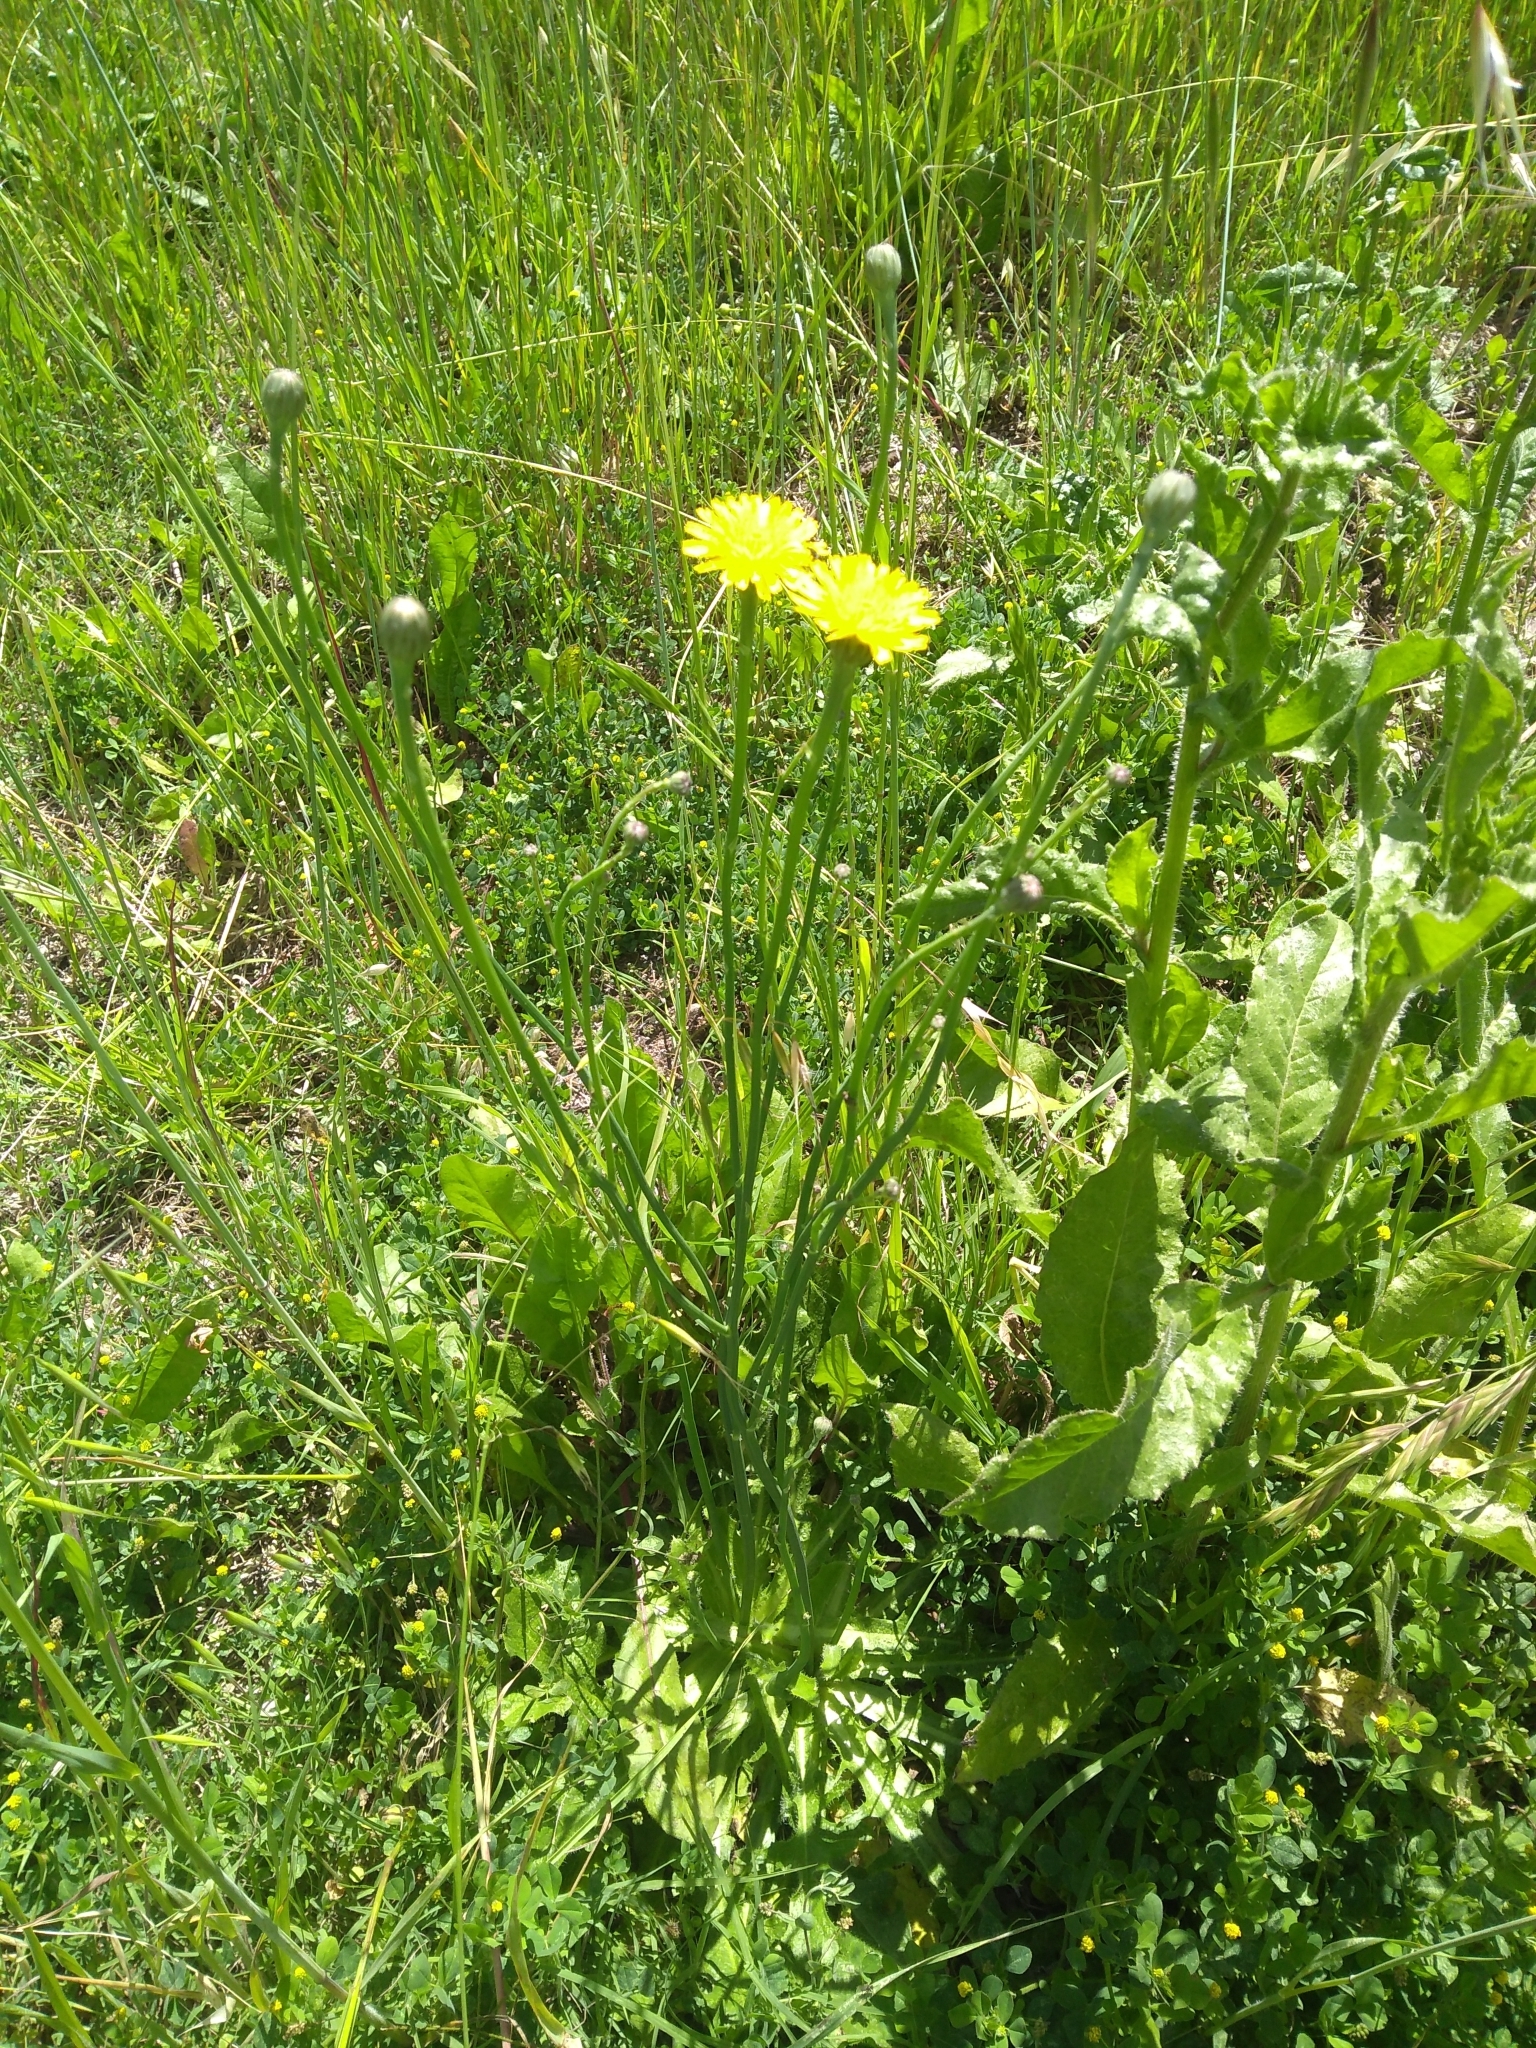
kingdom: Plantae
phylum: Tracheophyta
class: Magnoliopsida
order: Asterales
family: Asteraceae
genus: Hypochaeris
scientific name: Hypochaeris radicata
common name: Flatweed
